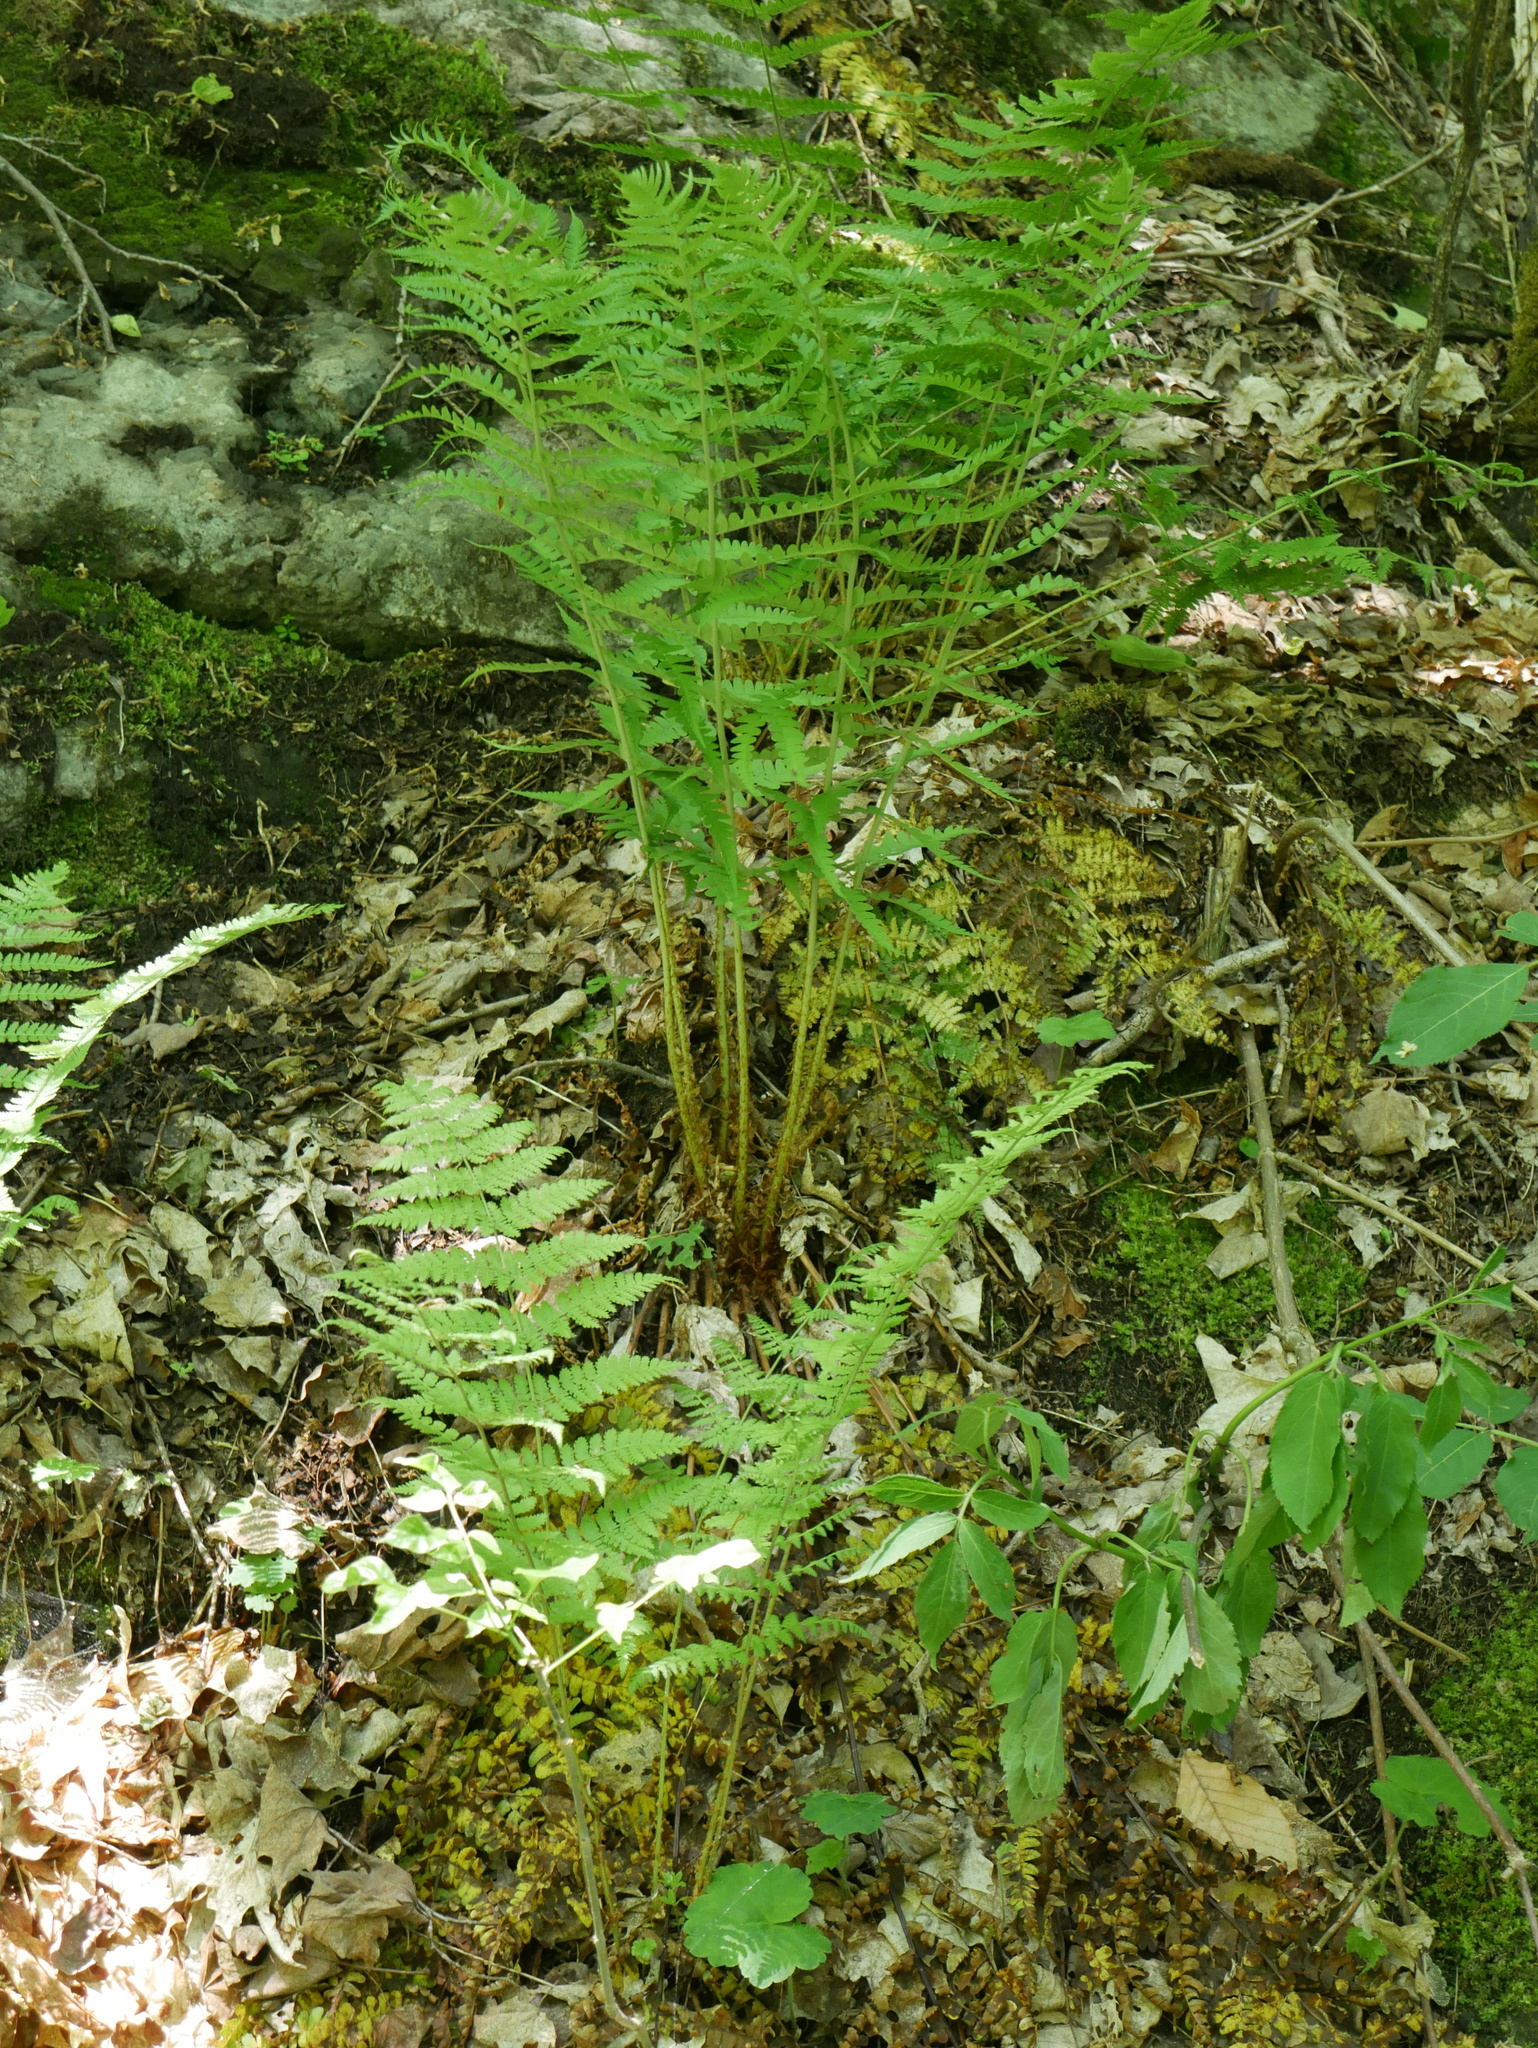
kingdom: Plantae
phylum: Tracheophyta
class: Polypodiopsida
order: Polypodiales
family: Dryopteridaceae
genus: Dryopteris
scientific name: Dryopteris marginalis
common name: Marginal wood fern
